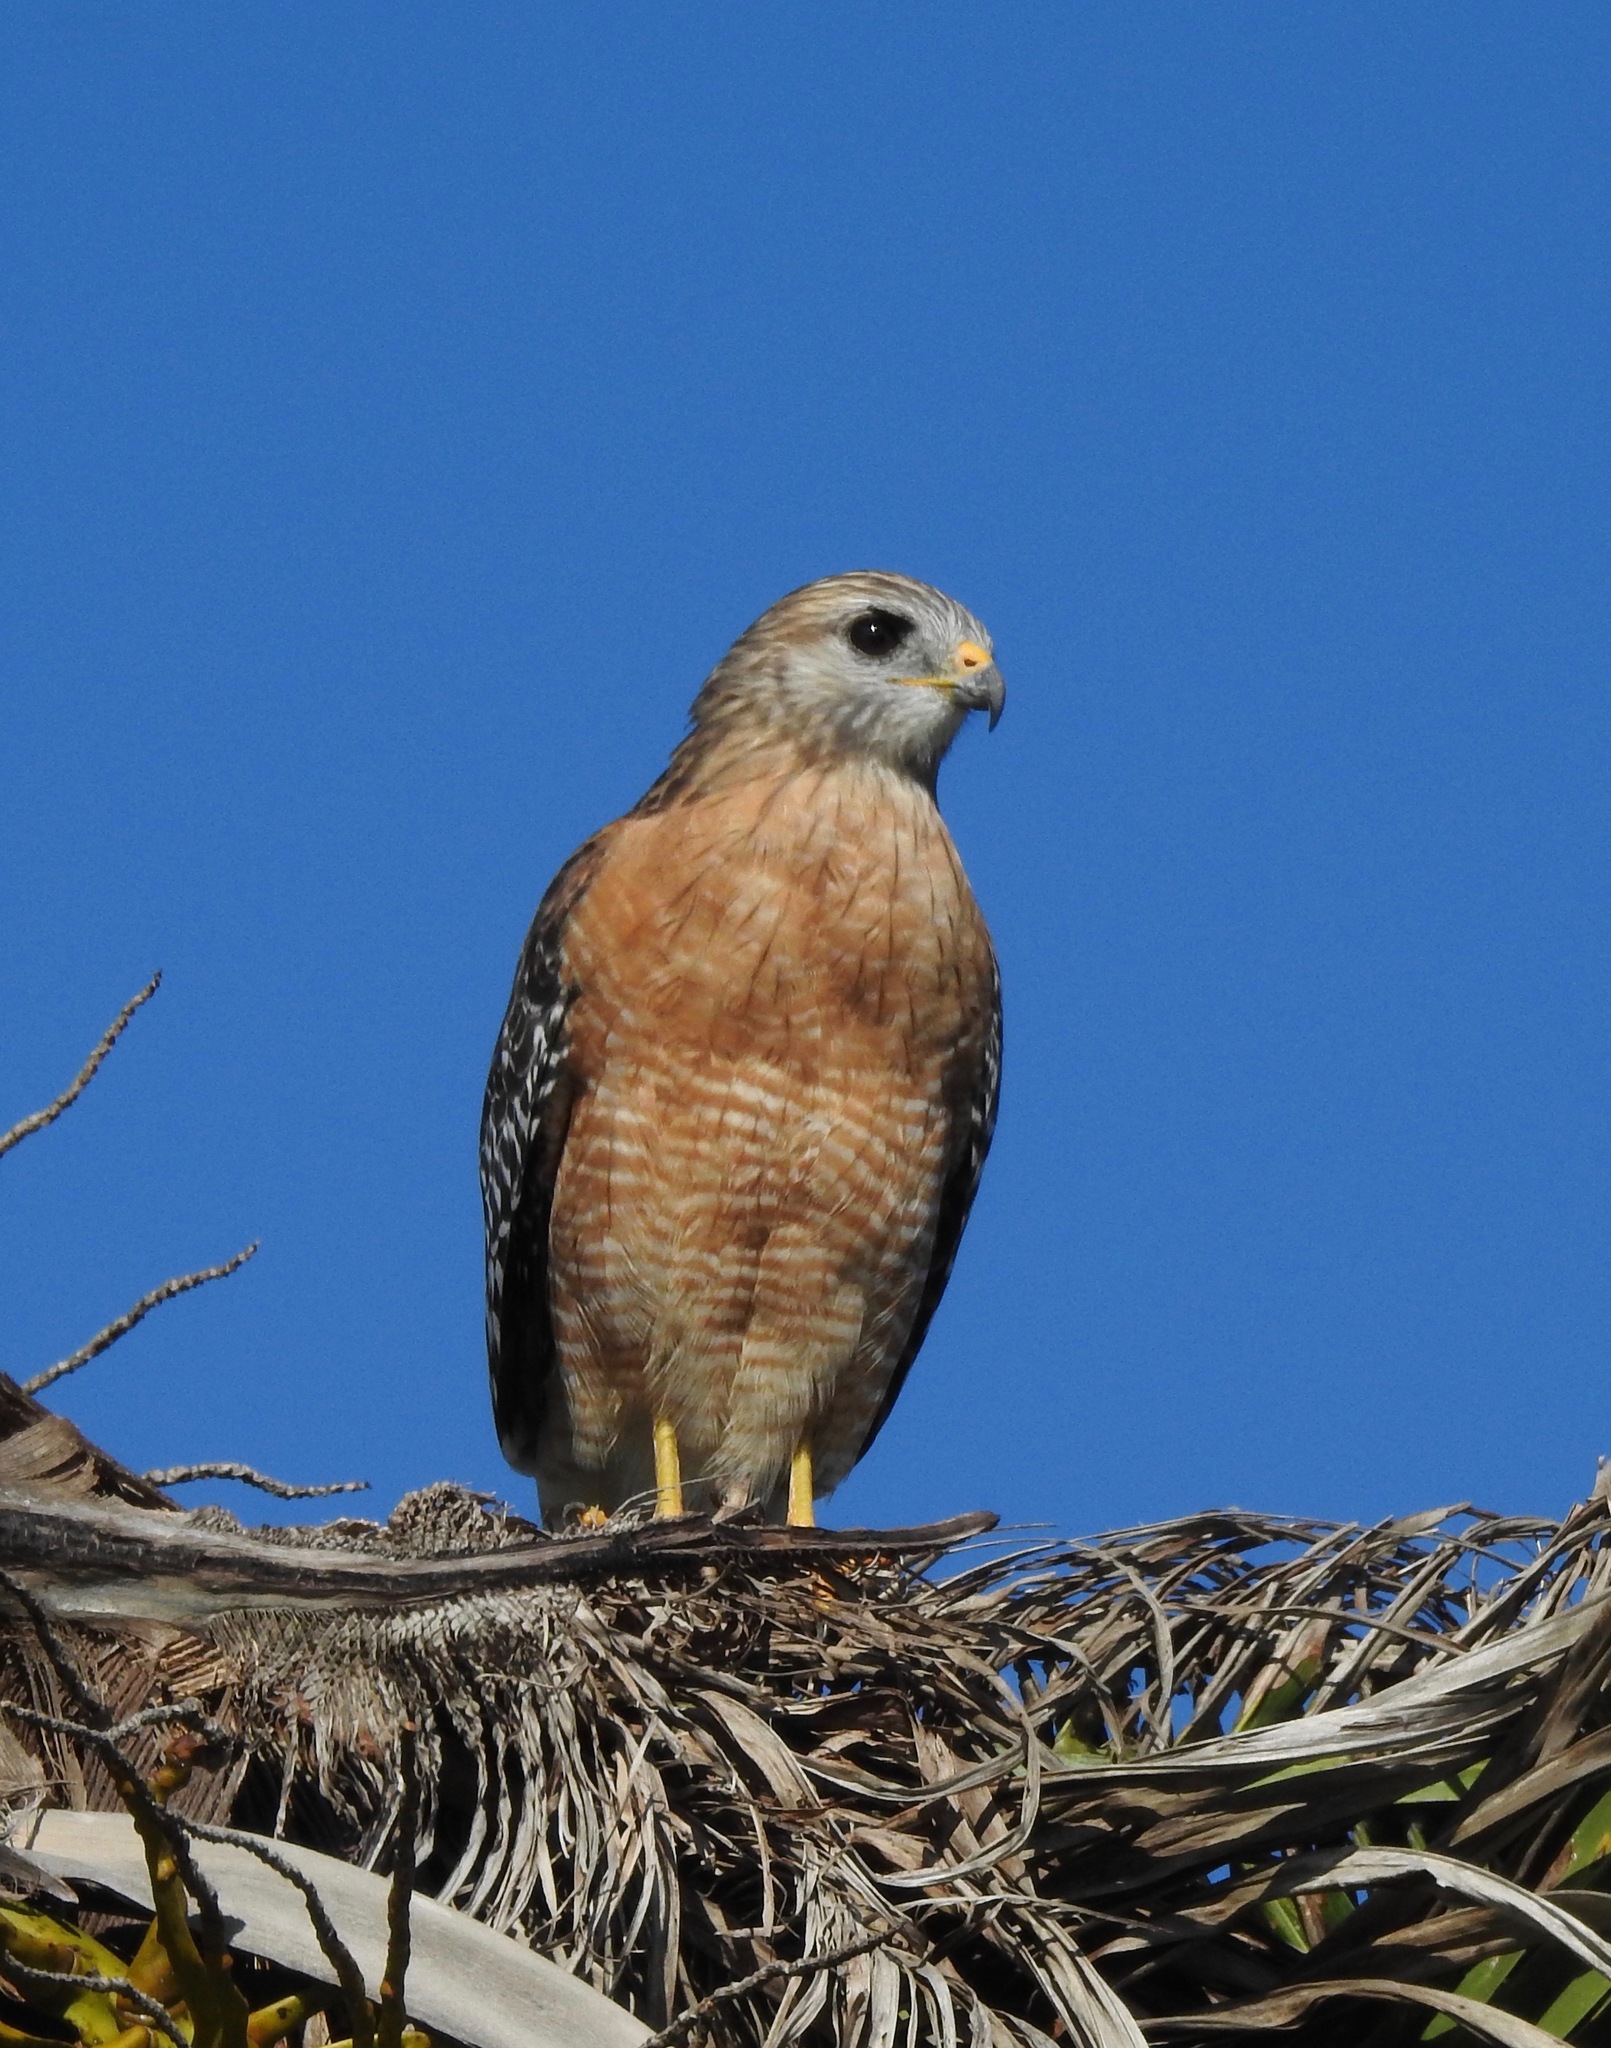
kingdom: Animalia
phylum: Chordata
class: Aves
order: Accipitriformes
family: Accipitridae
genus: Buteo
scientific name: Buteo lineatus
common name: Red-shouldered hawk
